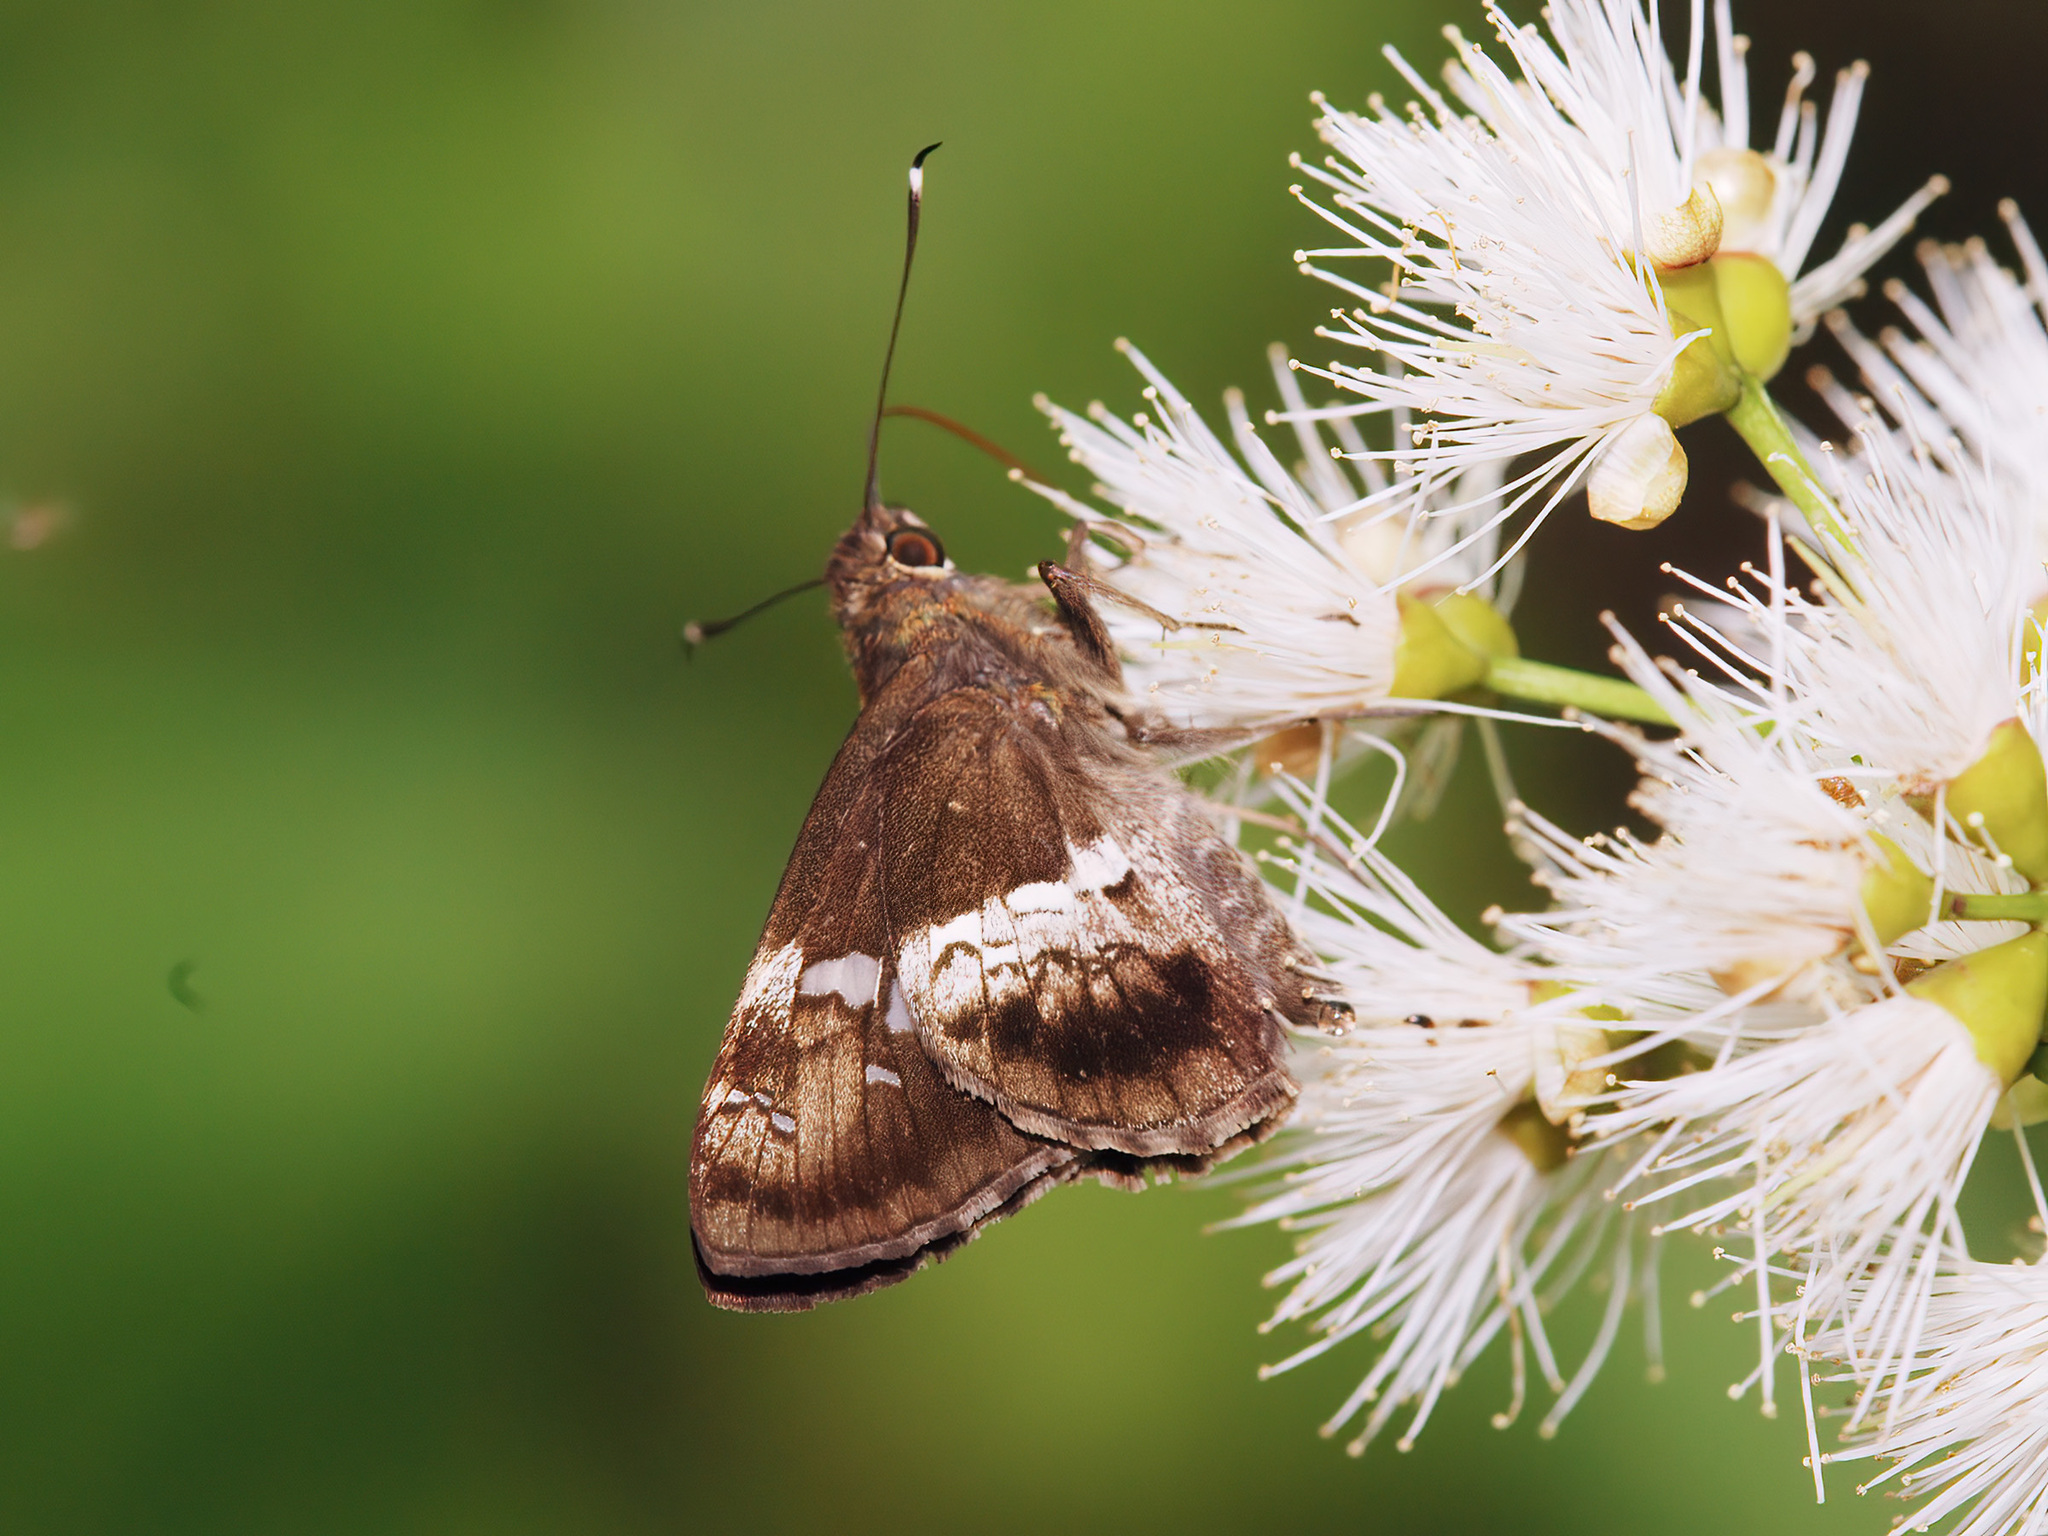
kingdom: Animalia
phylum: Arthropoda
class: Insecta
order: Lepidoptera
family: Hesperiidae
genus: Hyarotis
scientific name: Hyarotis adrastus
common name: Tree flitter
